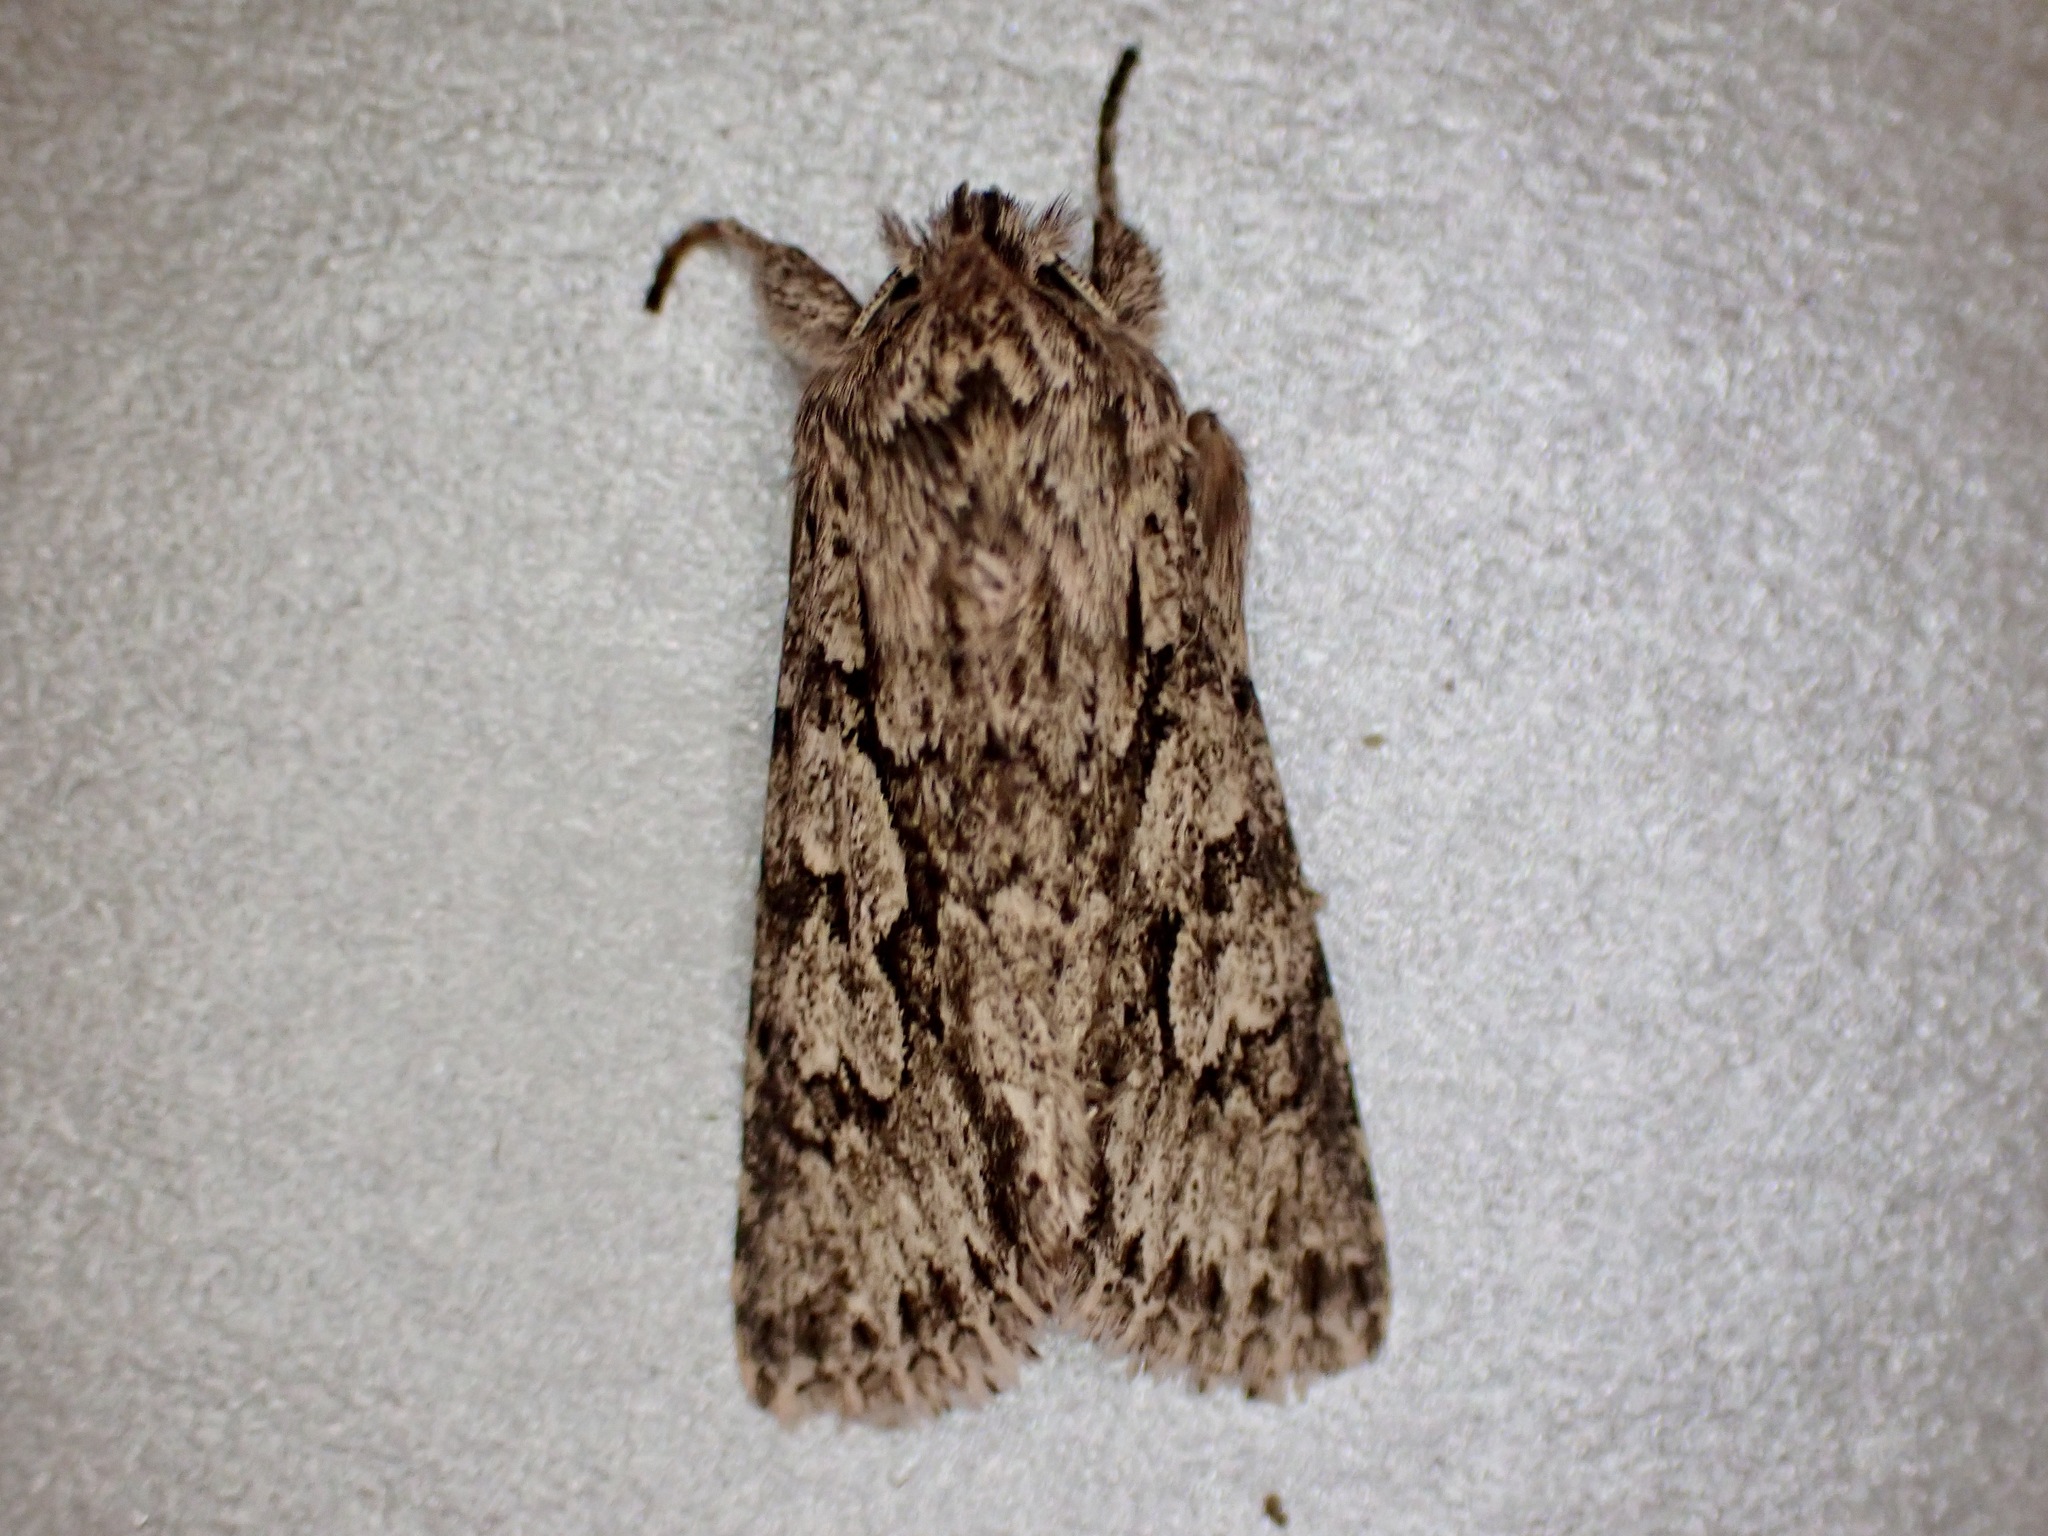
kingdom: Animalia
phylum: Arthropoda
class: Insecta
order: Lepidoptera
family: Noctuidae
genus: Xylocampa
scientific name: Xylocampa areola
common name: Early grey
